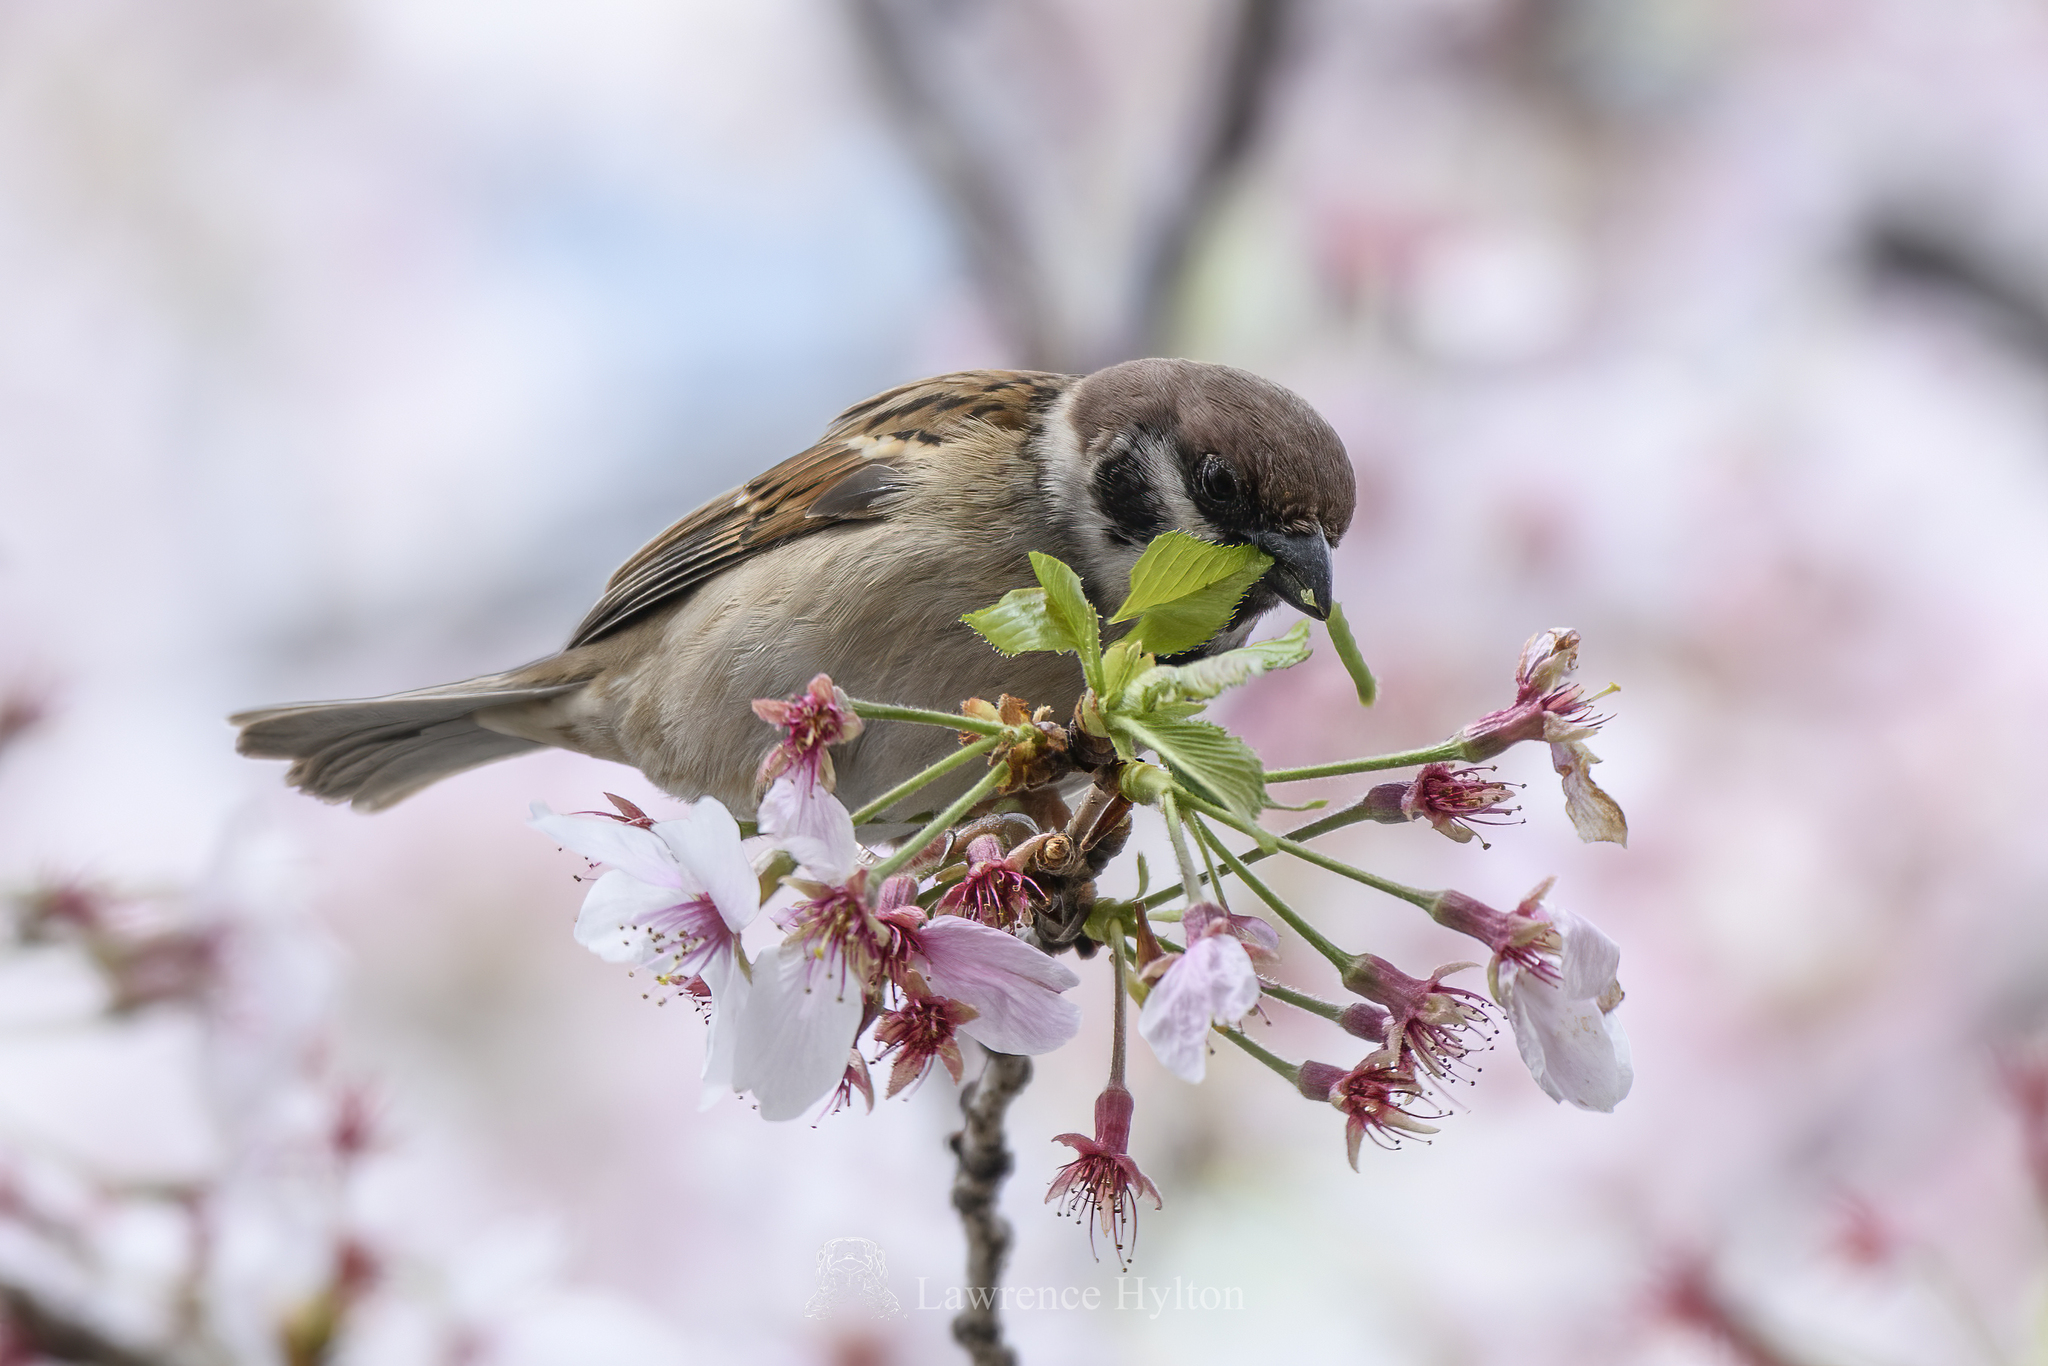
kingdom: Animalia
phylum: Chordata
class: Aves
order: Passeriformes
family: Passeridae
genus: Passer
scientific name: Passer montanus
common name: Eurasian tree sparrow
